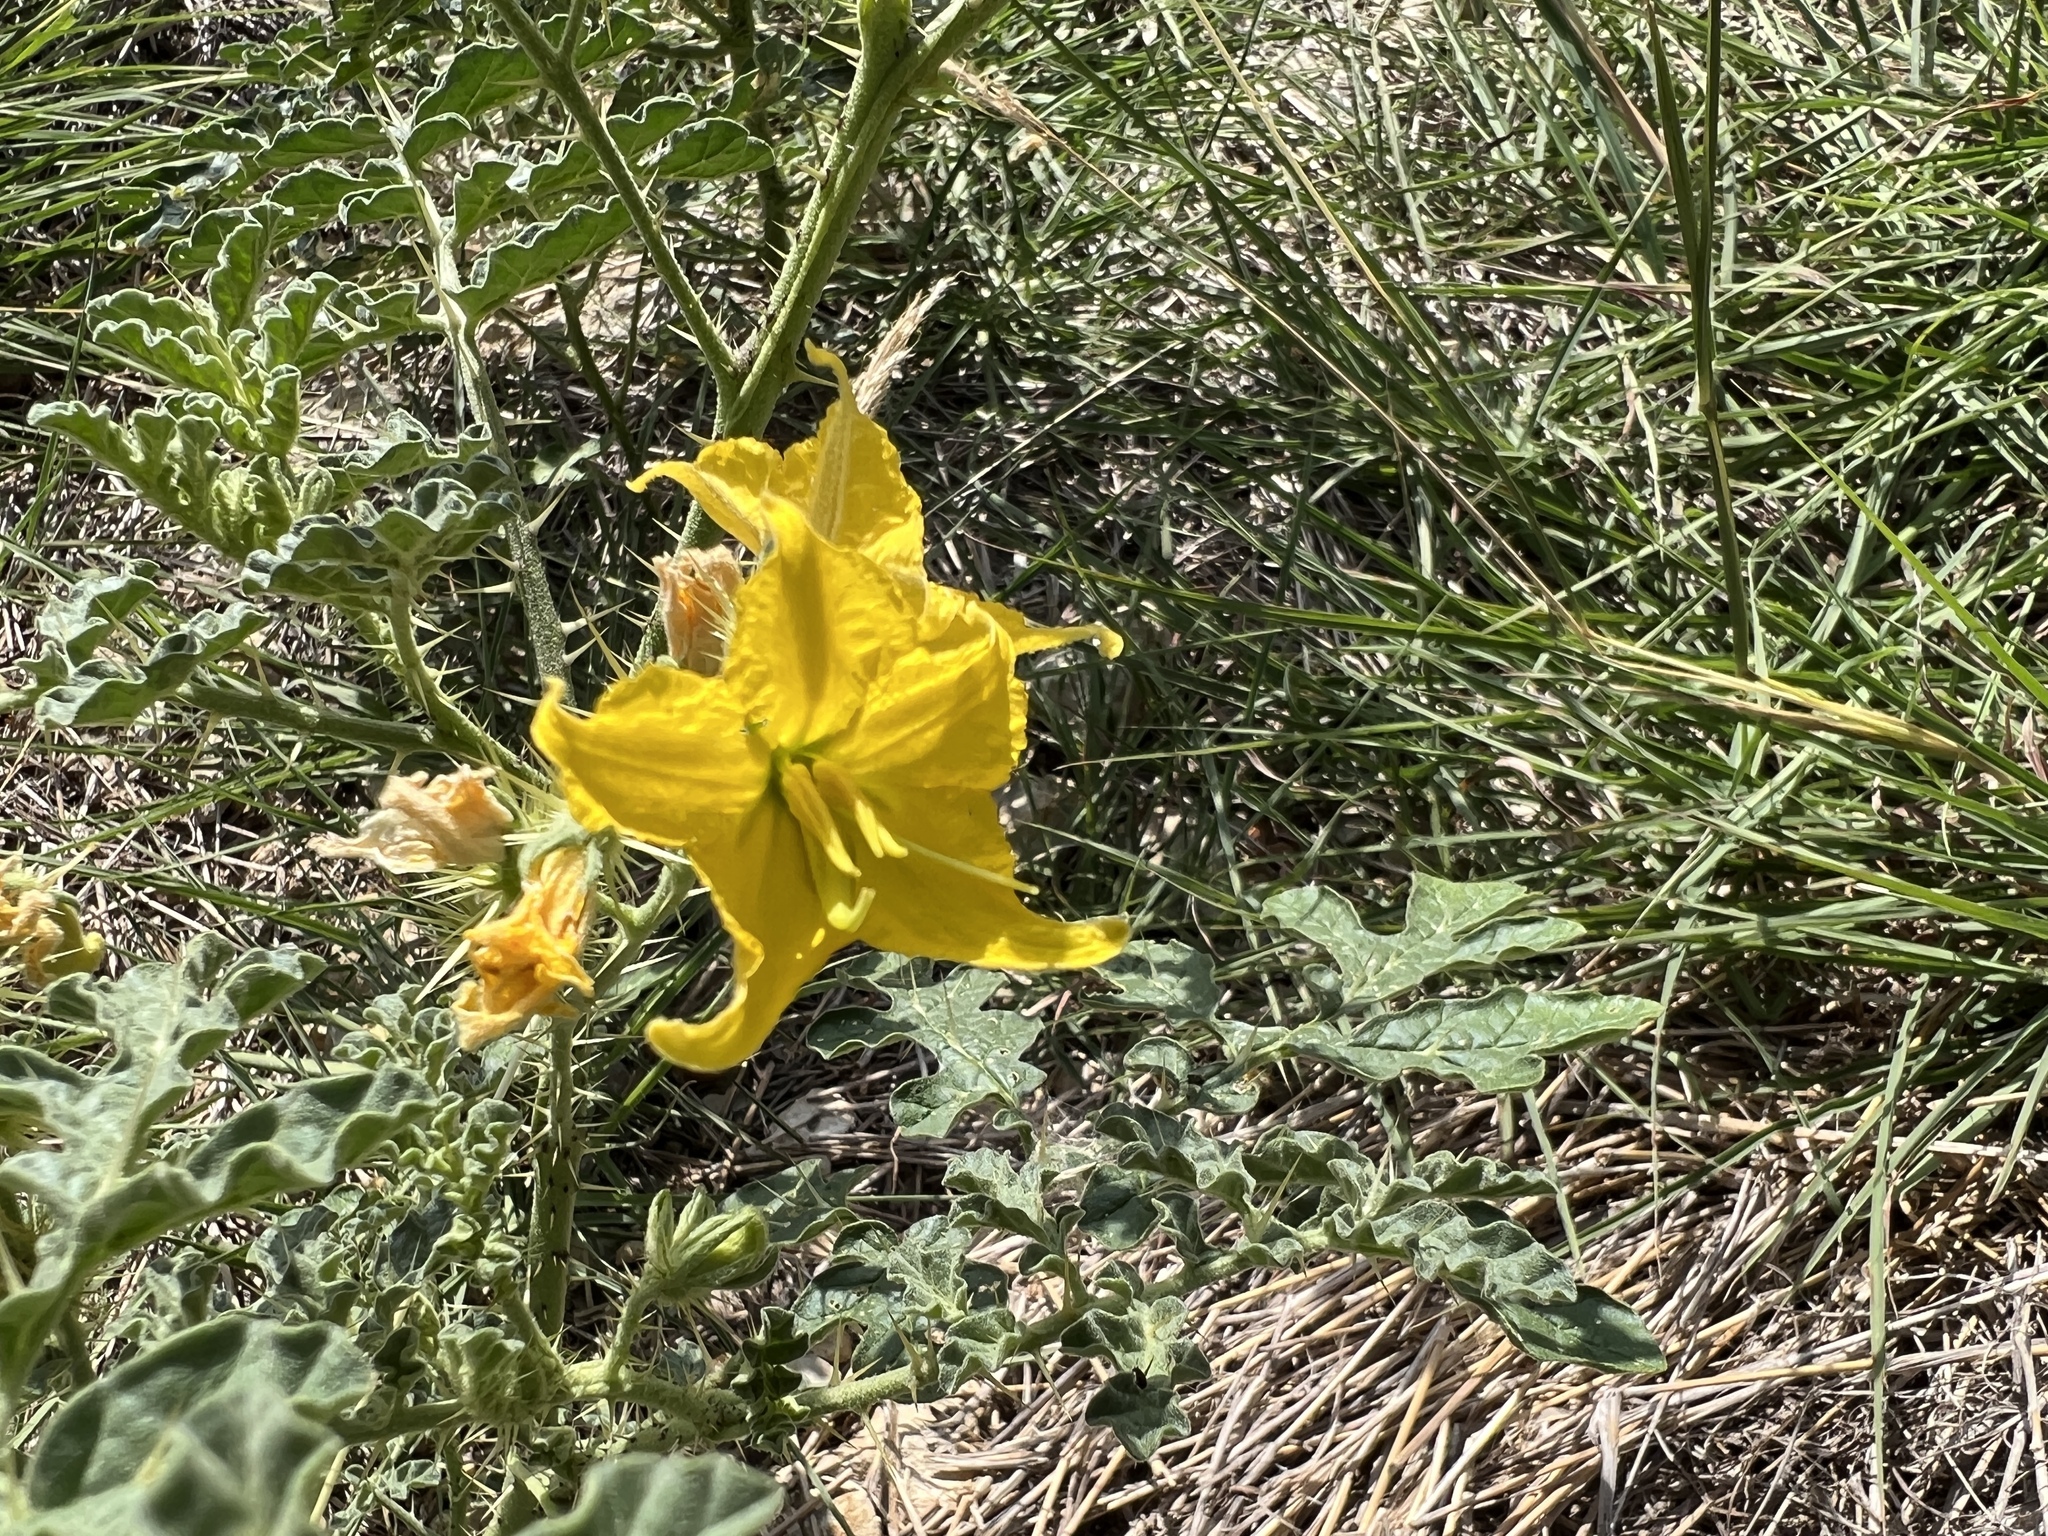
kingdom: Plantae
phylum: Tracheophyta
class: Magnoliopsida
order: Solanales
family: Solanaceae
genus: Solanum
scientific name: Solanum angustifolium
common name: Buffalobur nightshade
